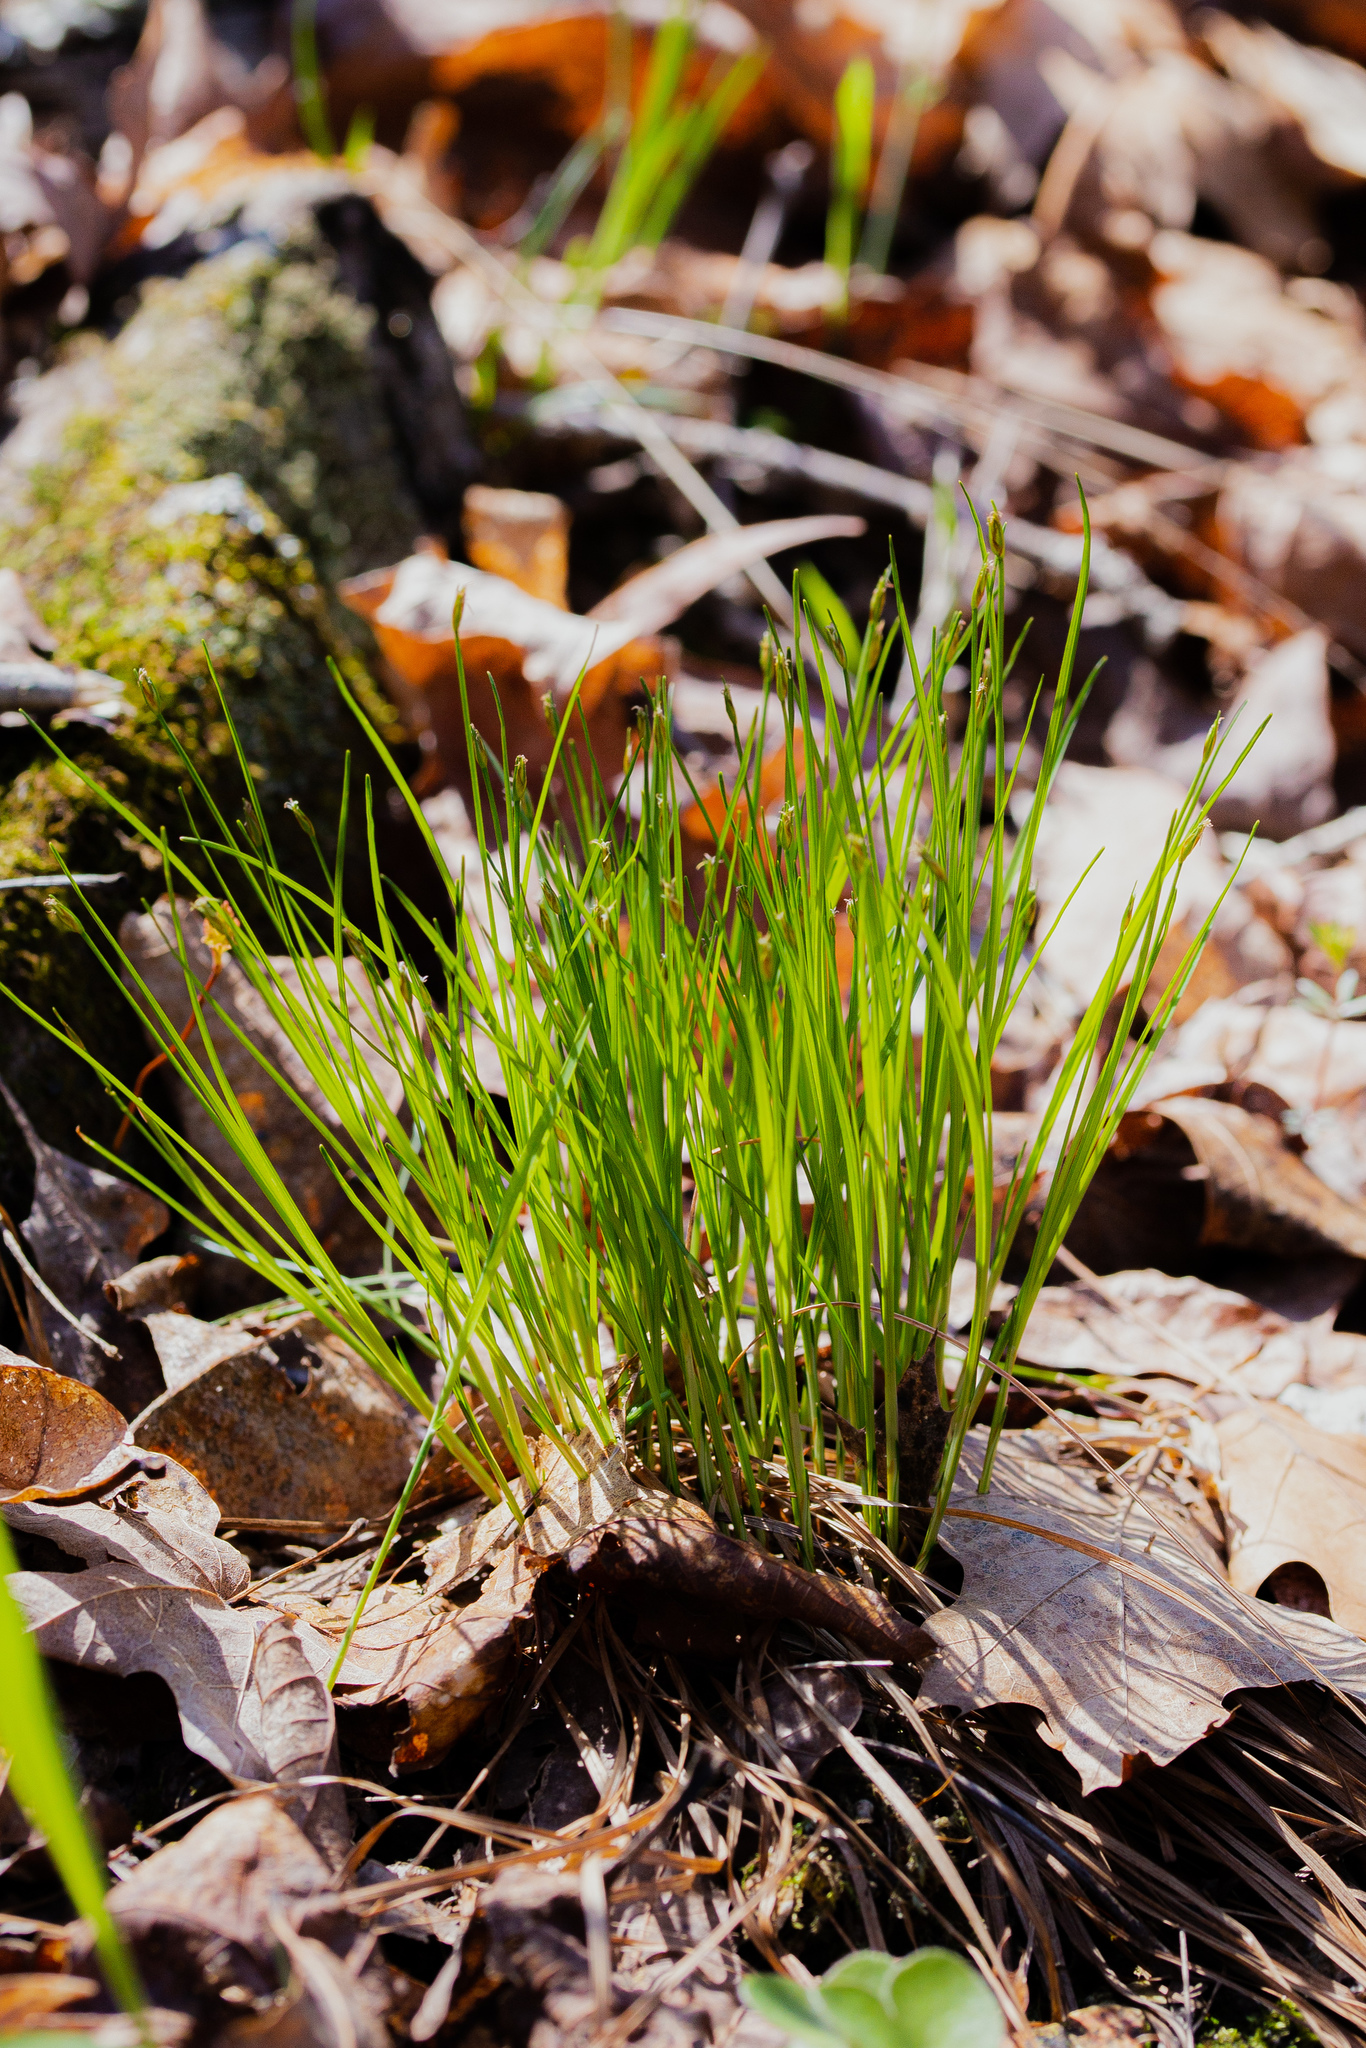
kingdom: Plantae
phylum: Tracheophyta
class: Liliopsida
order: Poales
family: Cyperaceae
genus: Trichophorum
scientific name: Trichophorum planifolium
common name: Bashful bulrush
